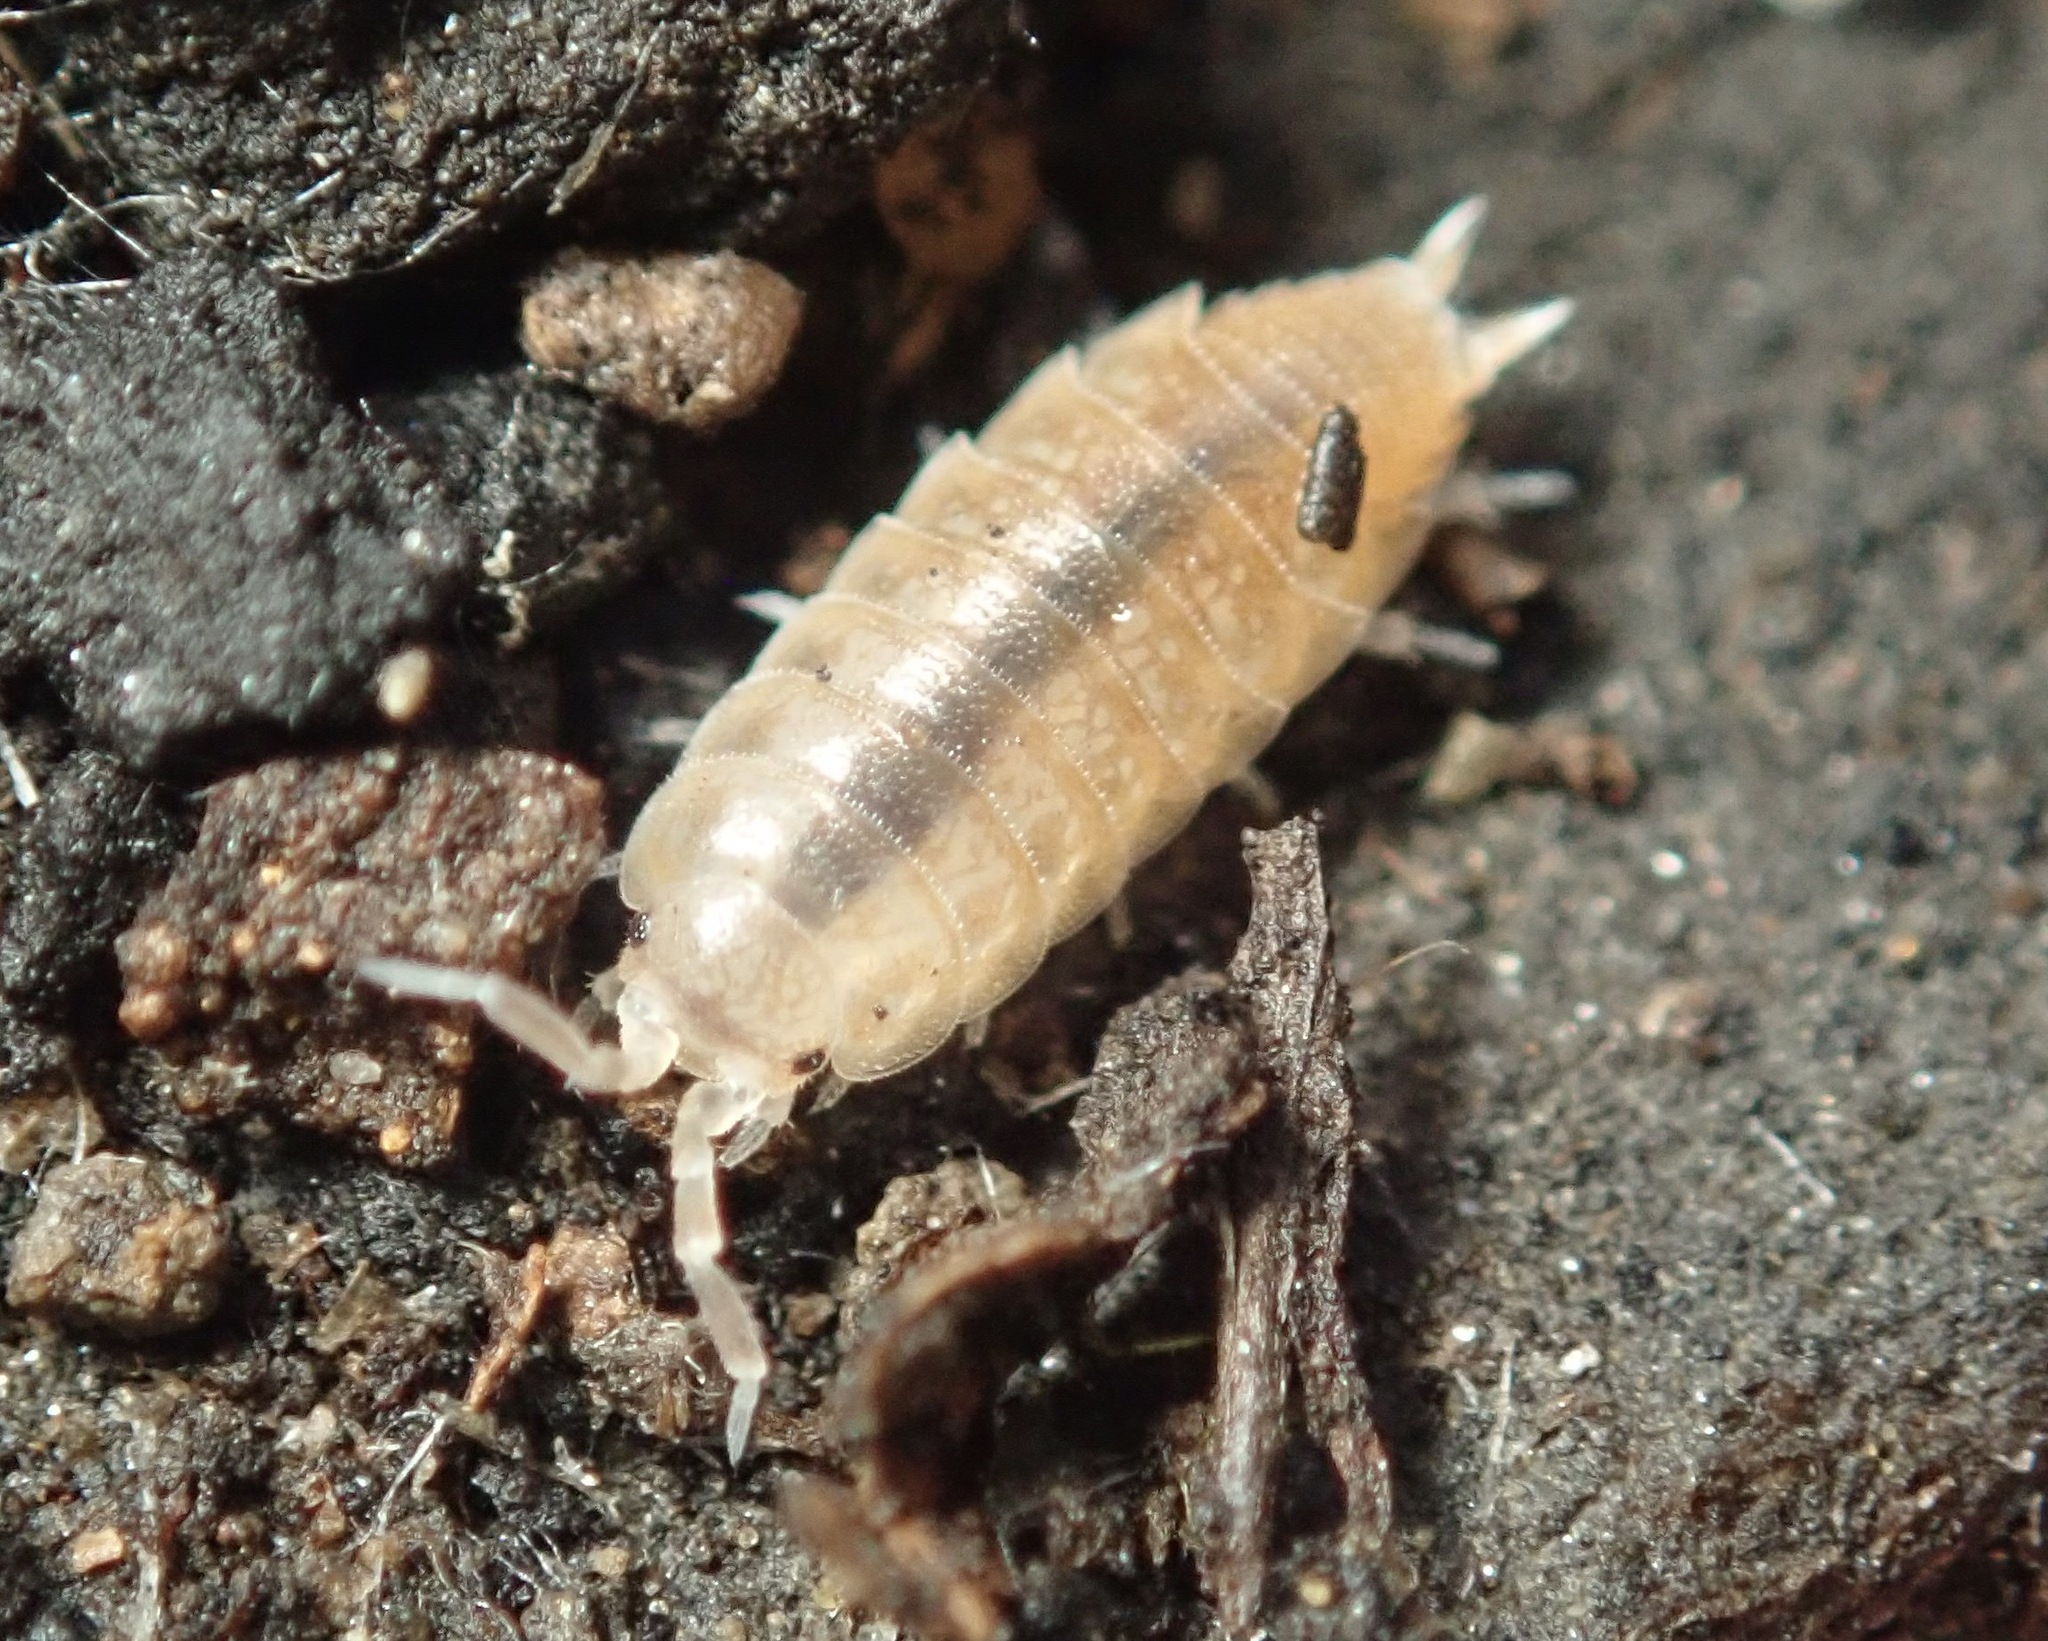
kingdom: Animalia
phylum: Arthropoda
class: Malacostraca
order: Isopoda
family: Platyarthridae
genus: Niambia
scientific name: Niambia capensis
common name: Isopod
